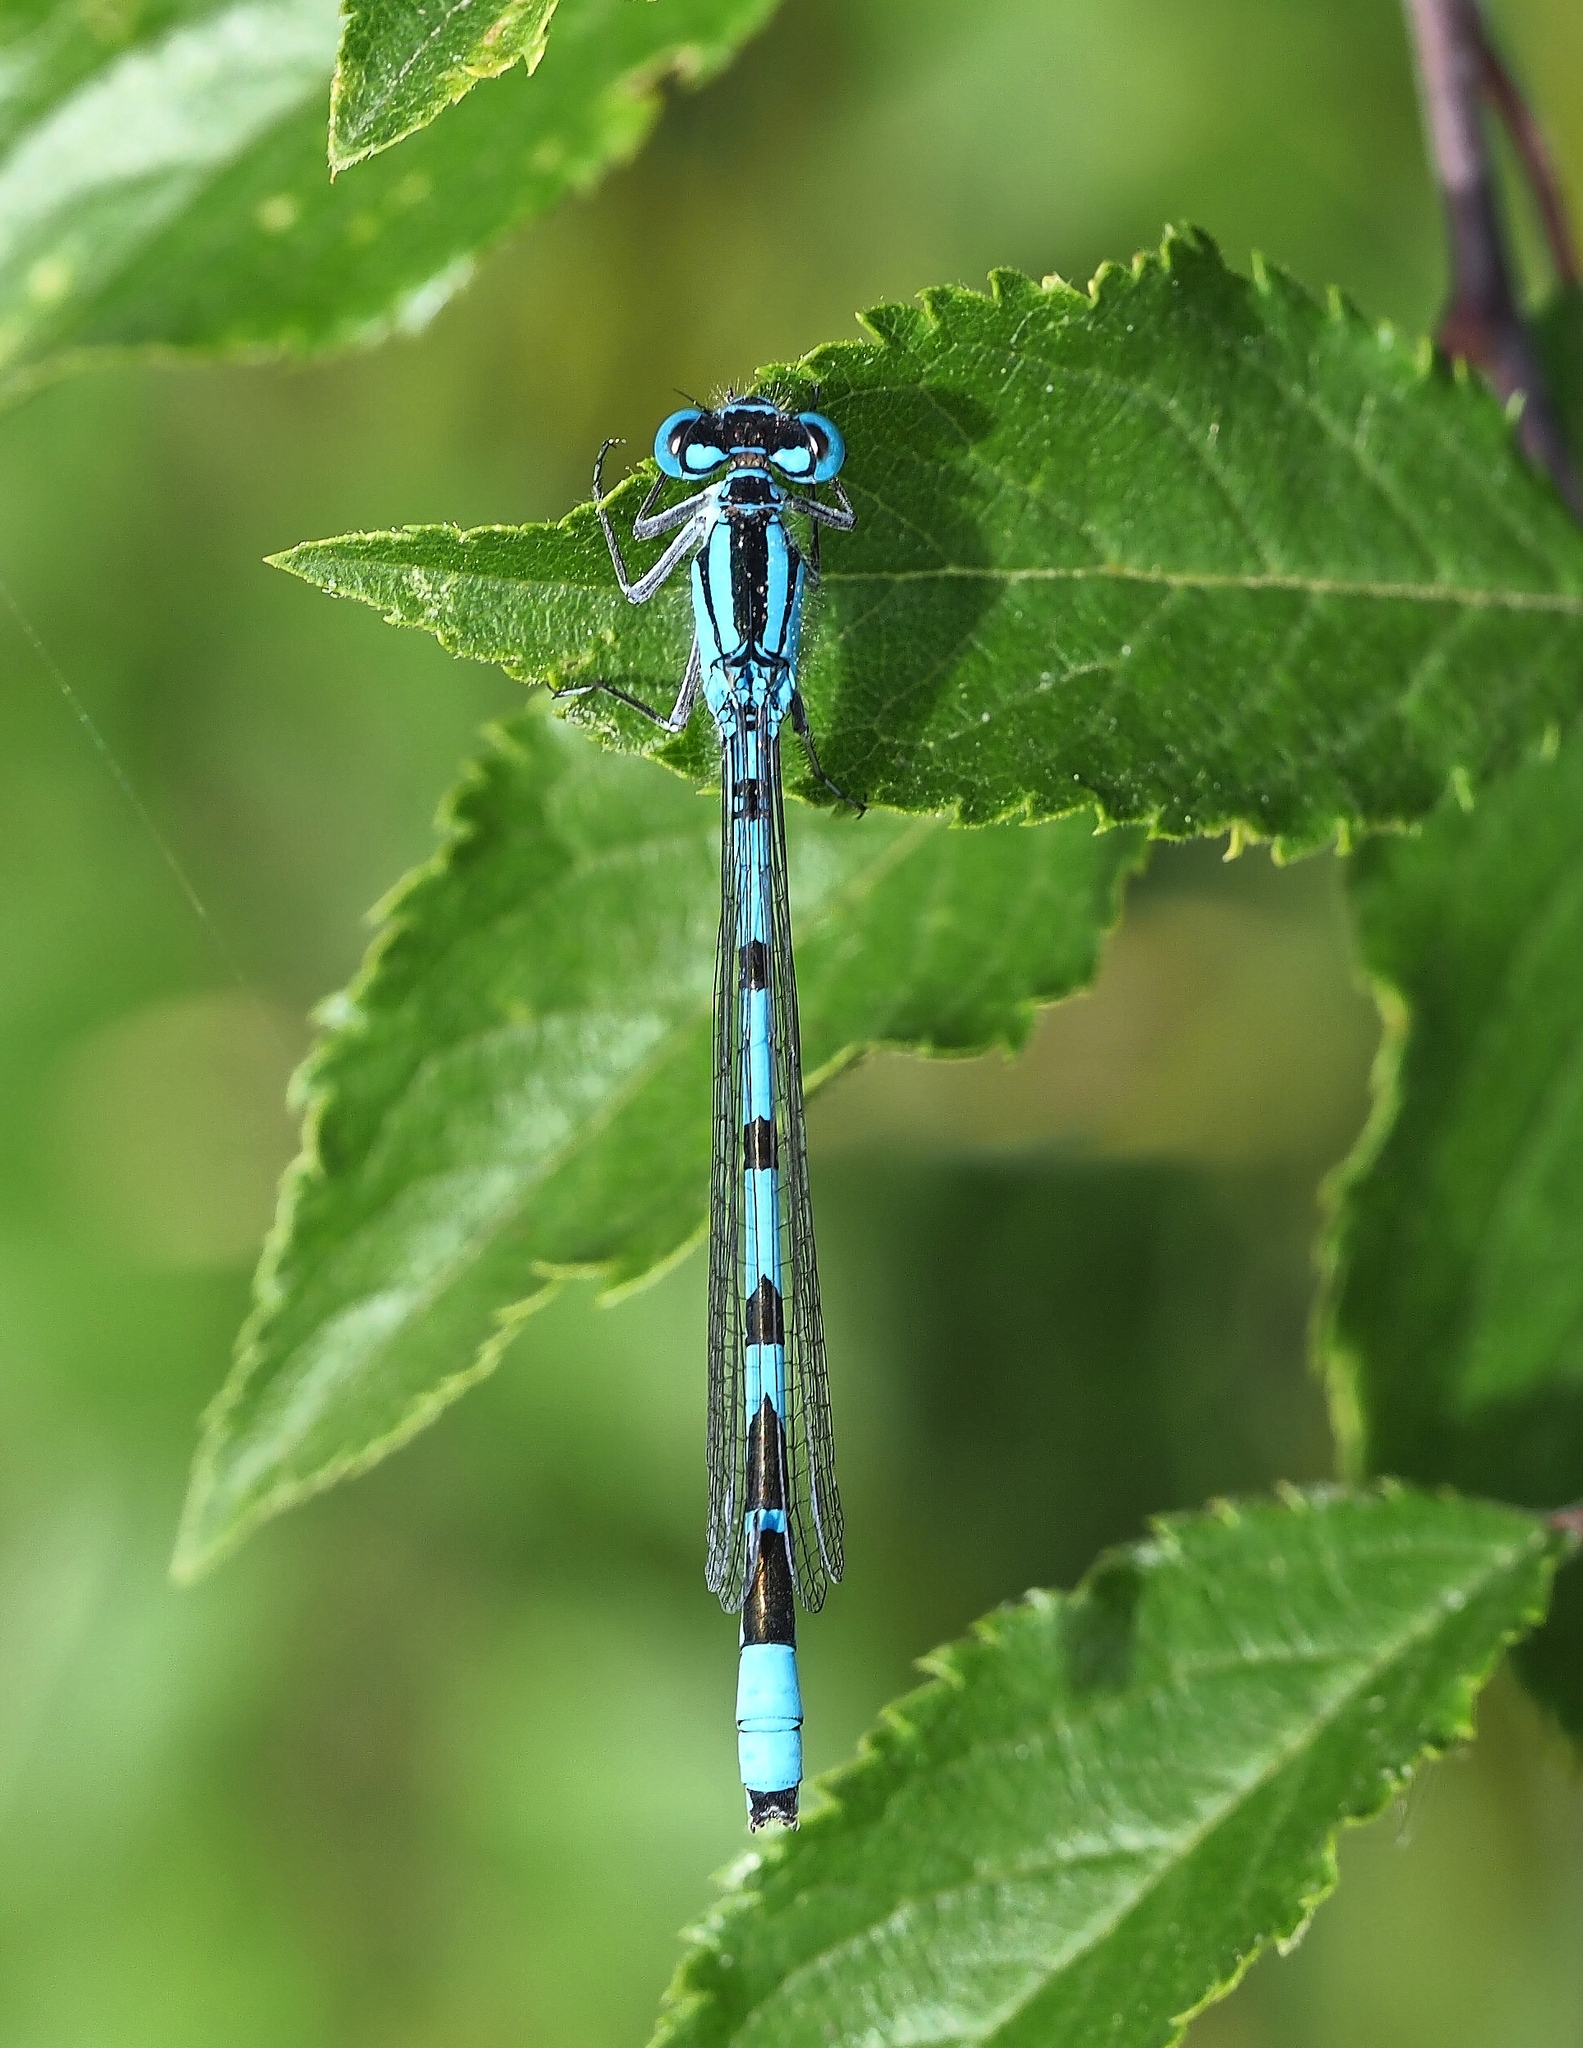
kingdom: Animalia
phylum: Arthropoda
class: Insecta
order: Odonata
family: Coenagrionidae
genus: Enallagma
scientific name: Enallagma cyathigerum
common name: Common blue damselfly
